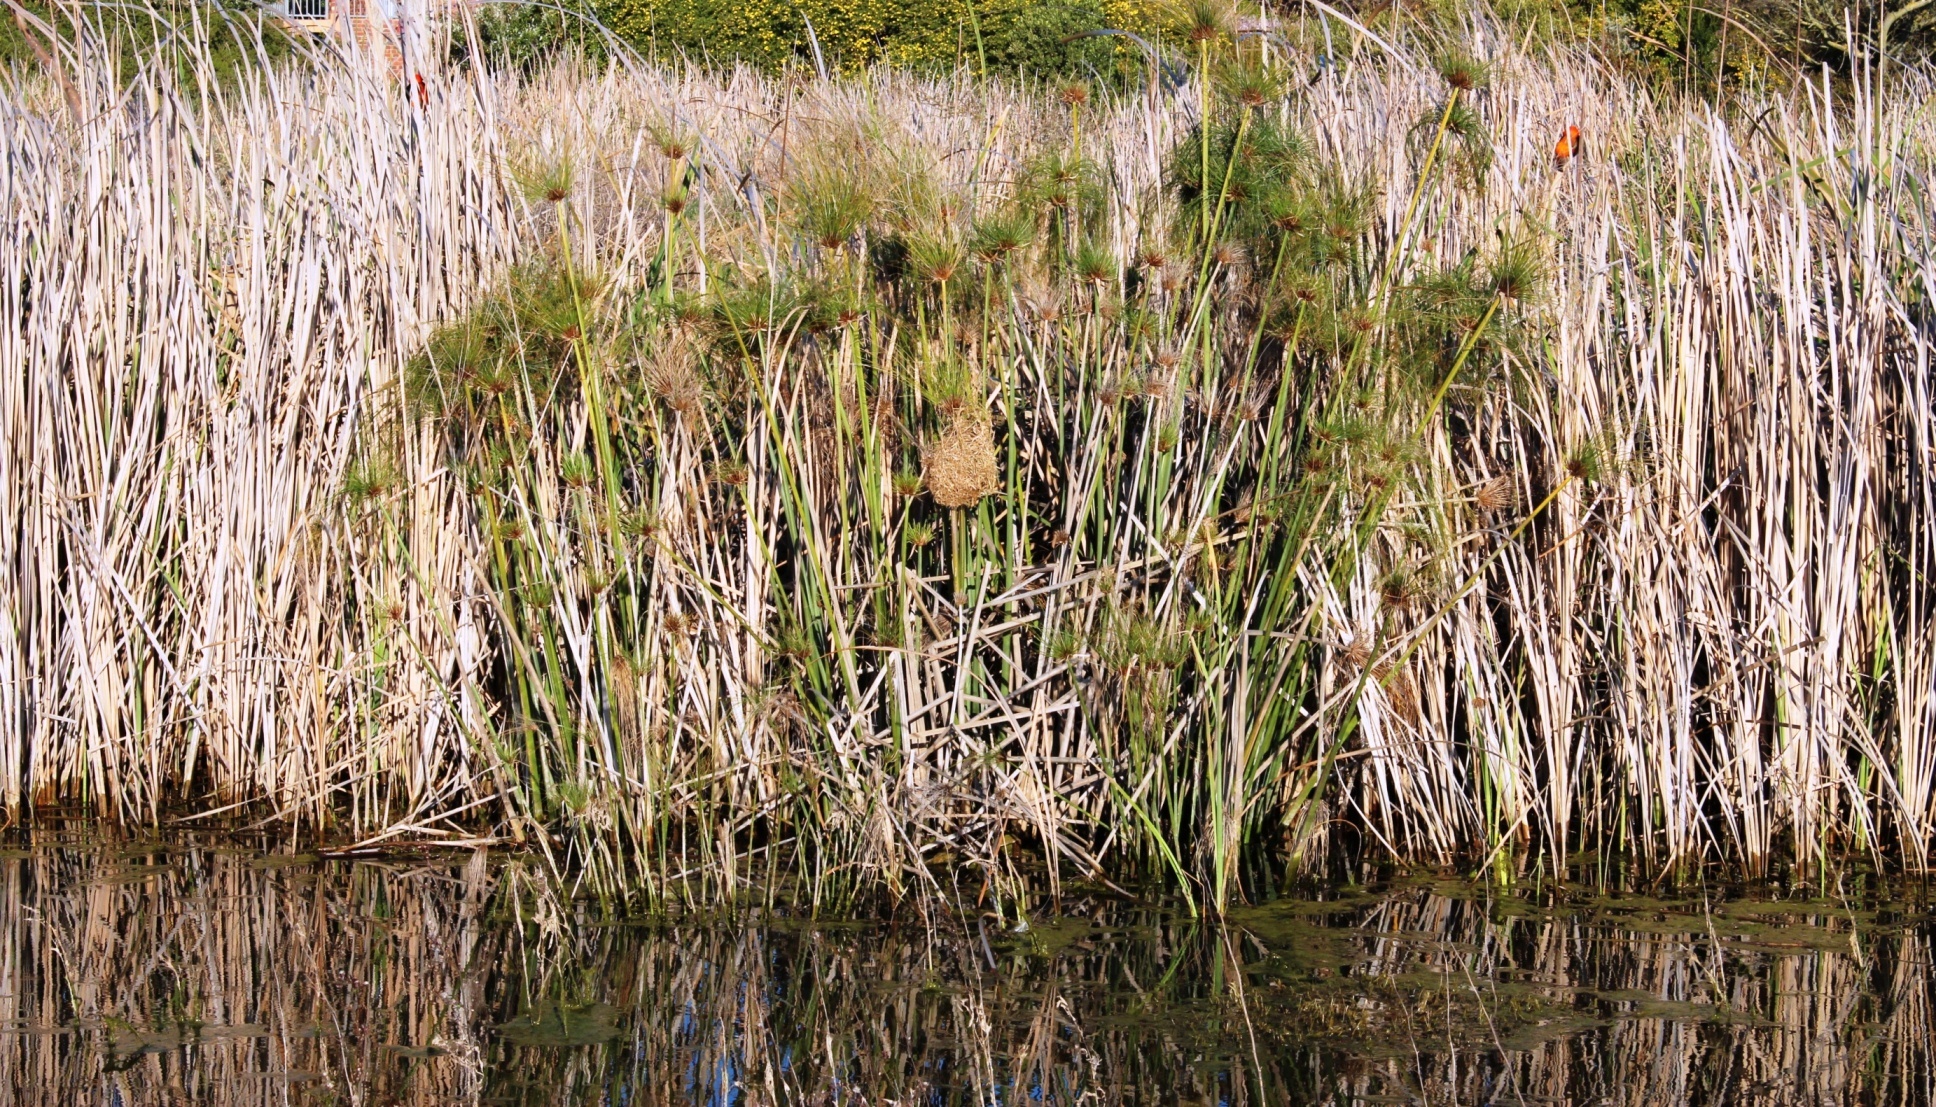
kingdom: Animalia
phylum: Chordata
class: Aves
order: Passeriformes
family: Ploceidae
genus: Euplectes
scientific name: Euplectes orix
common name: Southern red bishop
